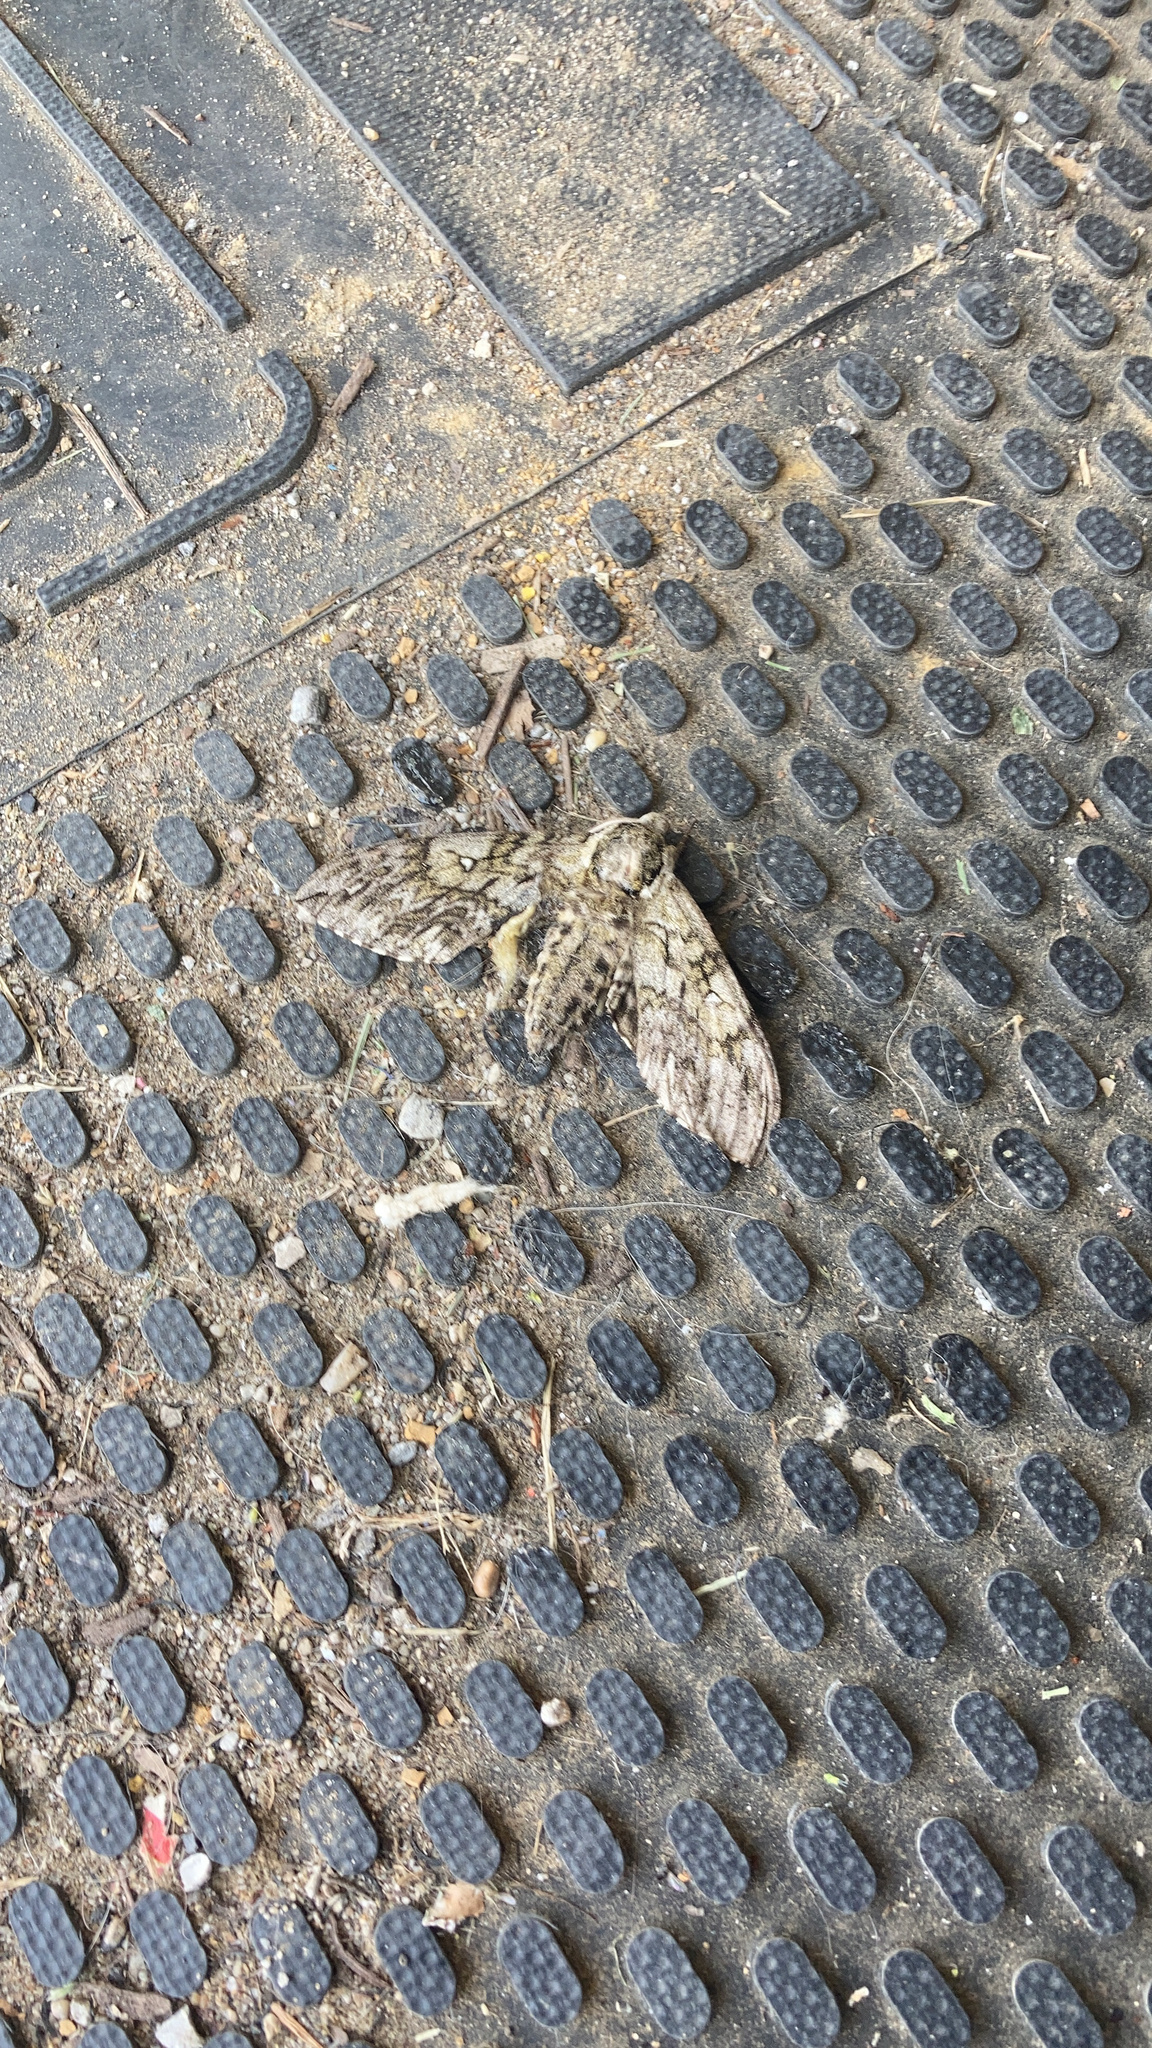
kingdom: Animalia
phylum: Arthropoda
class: Insecta
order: Lepidoptera
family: Sphingidae
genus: Ceratomia
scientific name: Ceratomia undulosa
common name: Waved sphinx
